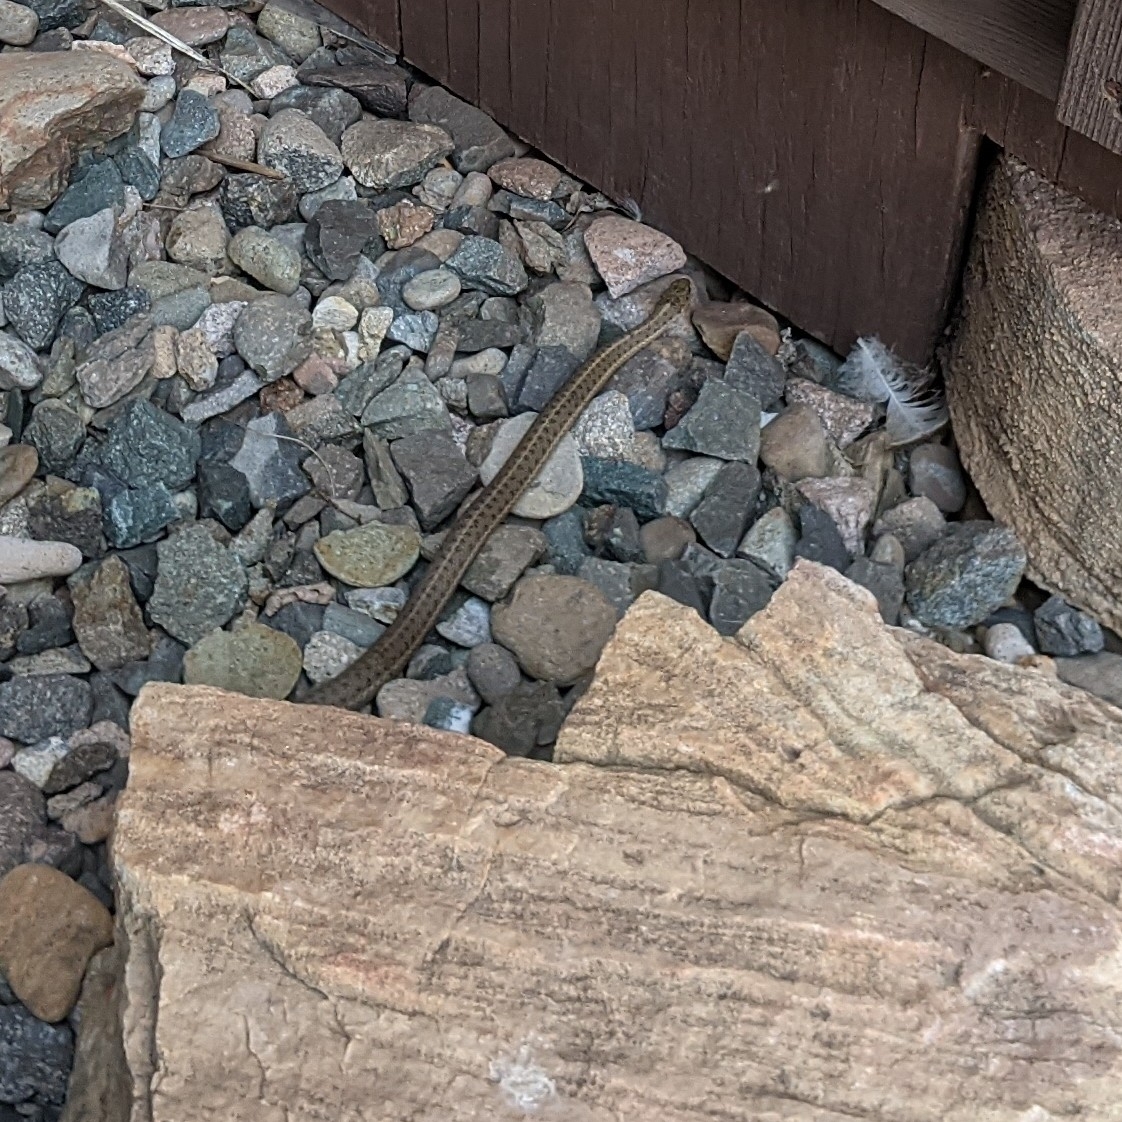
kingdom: Animalia
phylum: Chordata
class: Squamata
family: Colubridae
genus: Thamnophis
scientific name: Thamnophis elegans
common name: Western terrestrial garter snake
